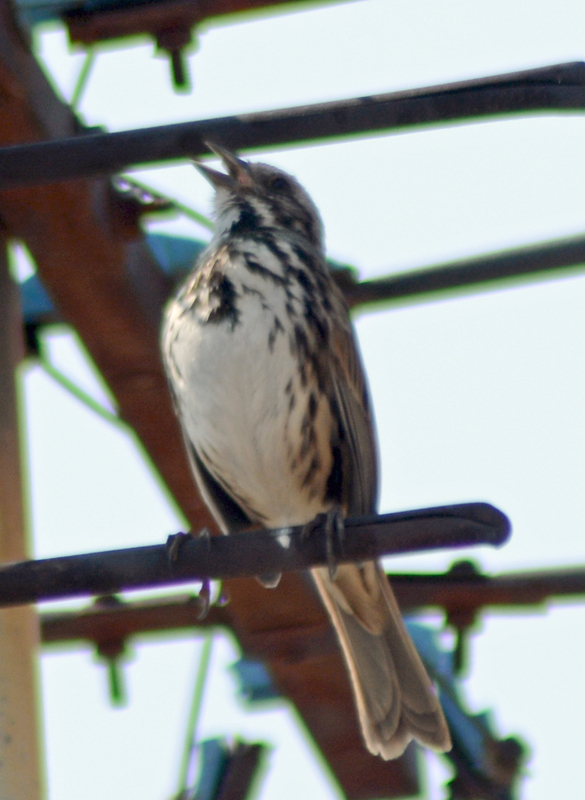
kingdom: Animalia
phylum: Chordata
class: Aves
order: Passeriformes
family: Passerellidae
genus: Melospiza
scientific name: Melospiza melodia
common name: Song sparrow
